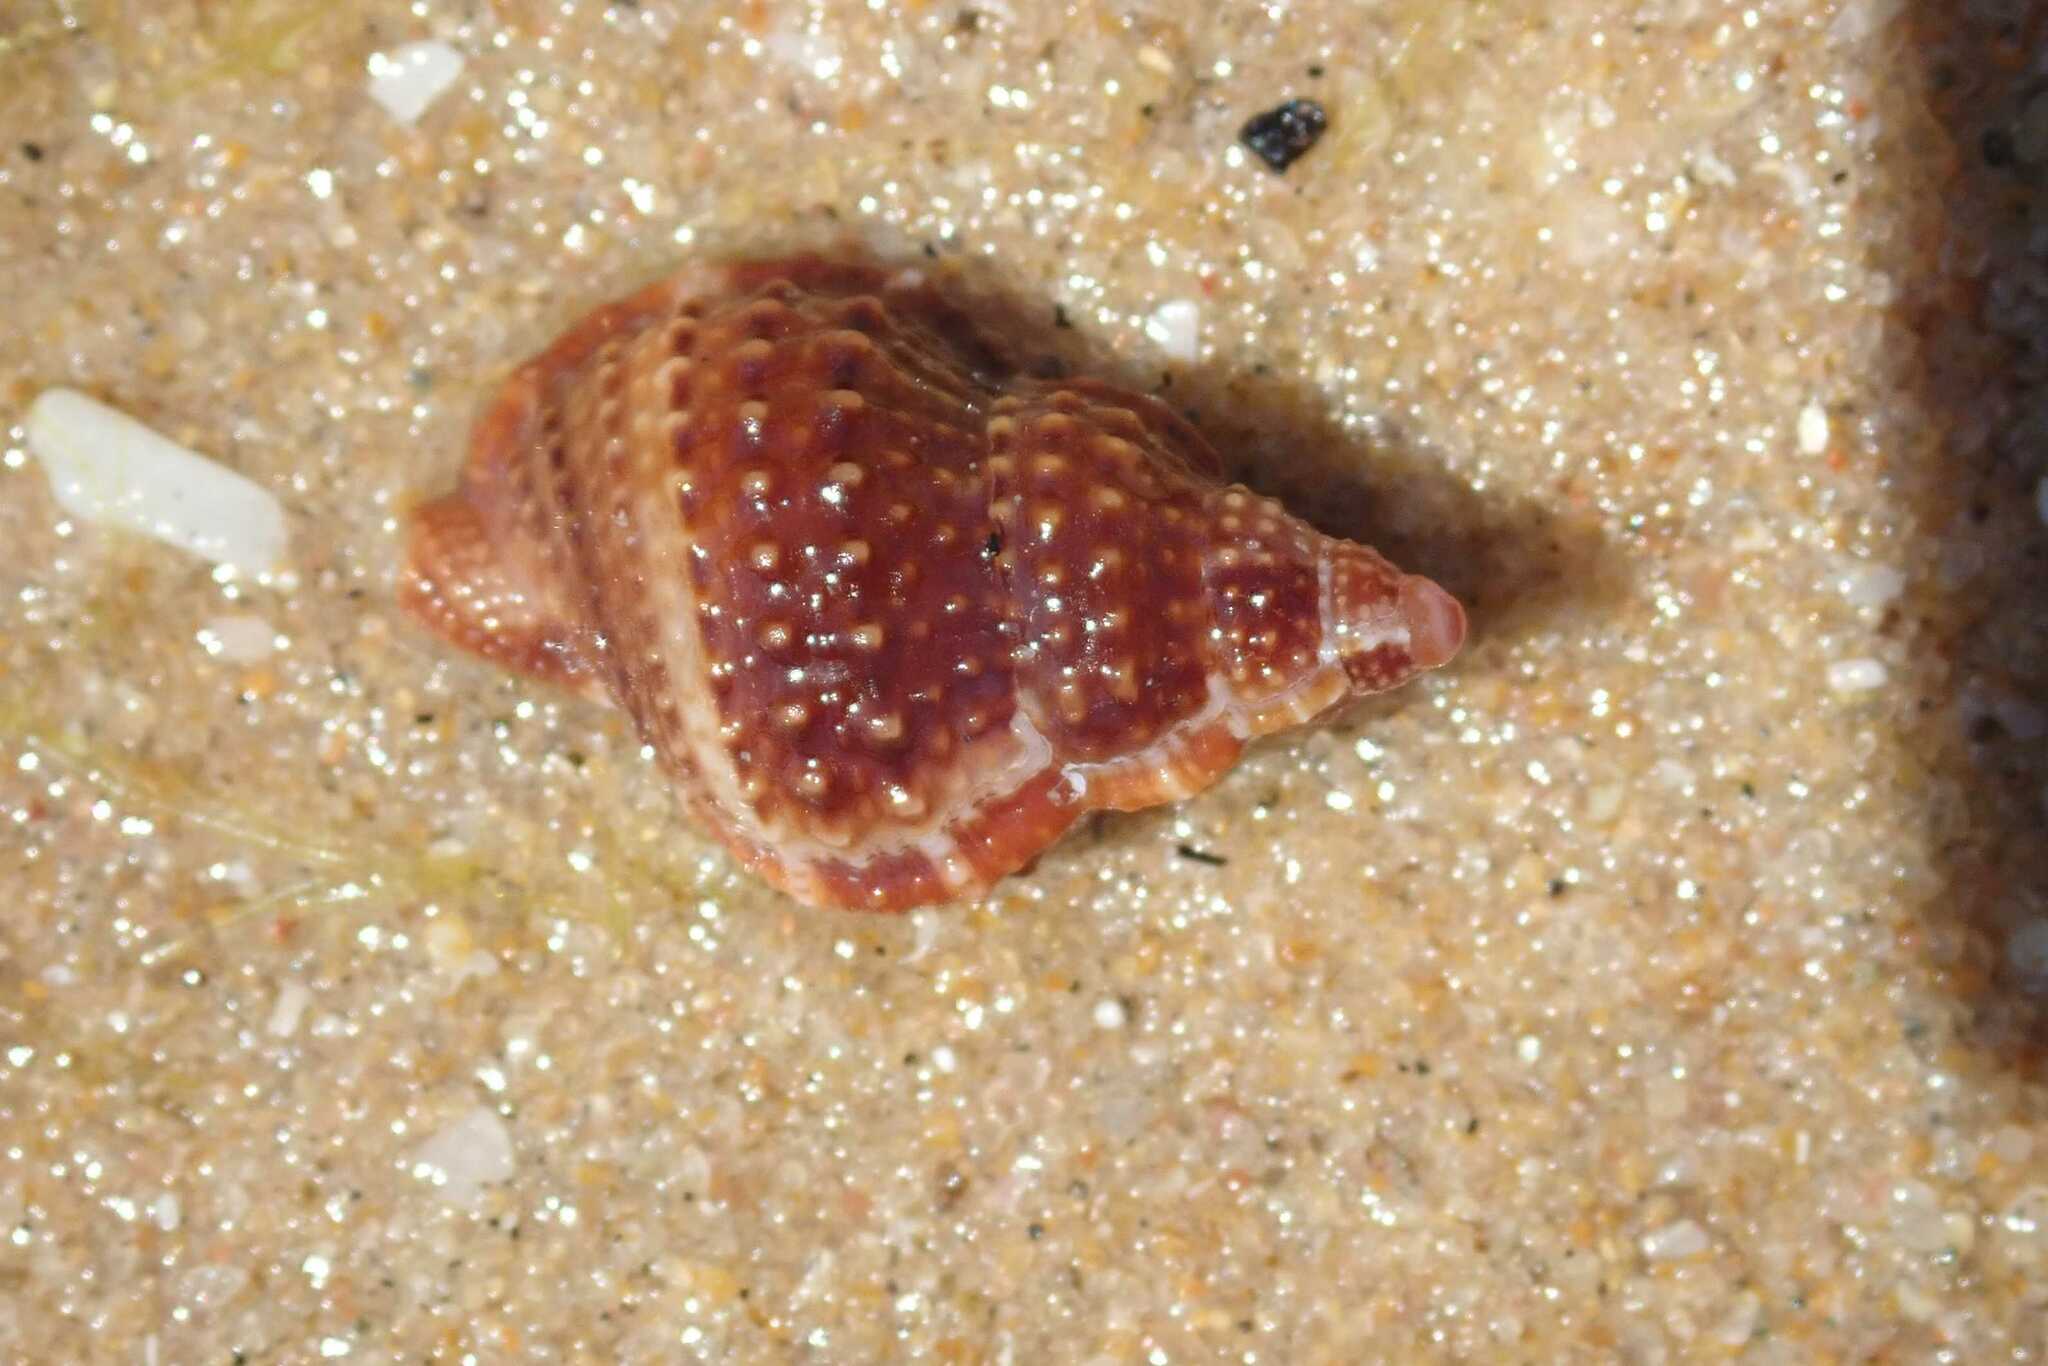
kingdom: Animalia
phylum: Mollusca
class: Gastropoda
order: Littorinimorpha
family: Bursidae
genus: Dulcerana
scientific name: Dulcerana granularis
